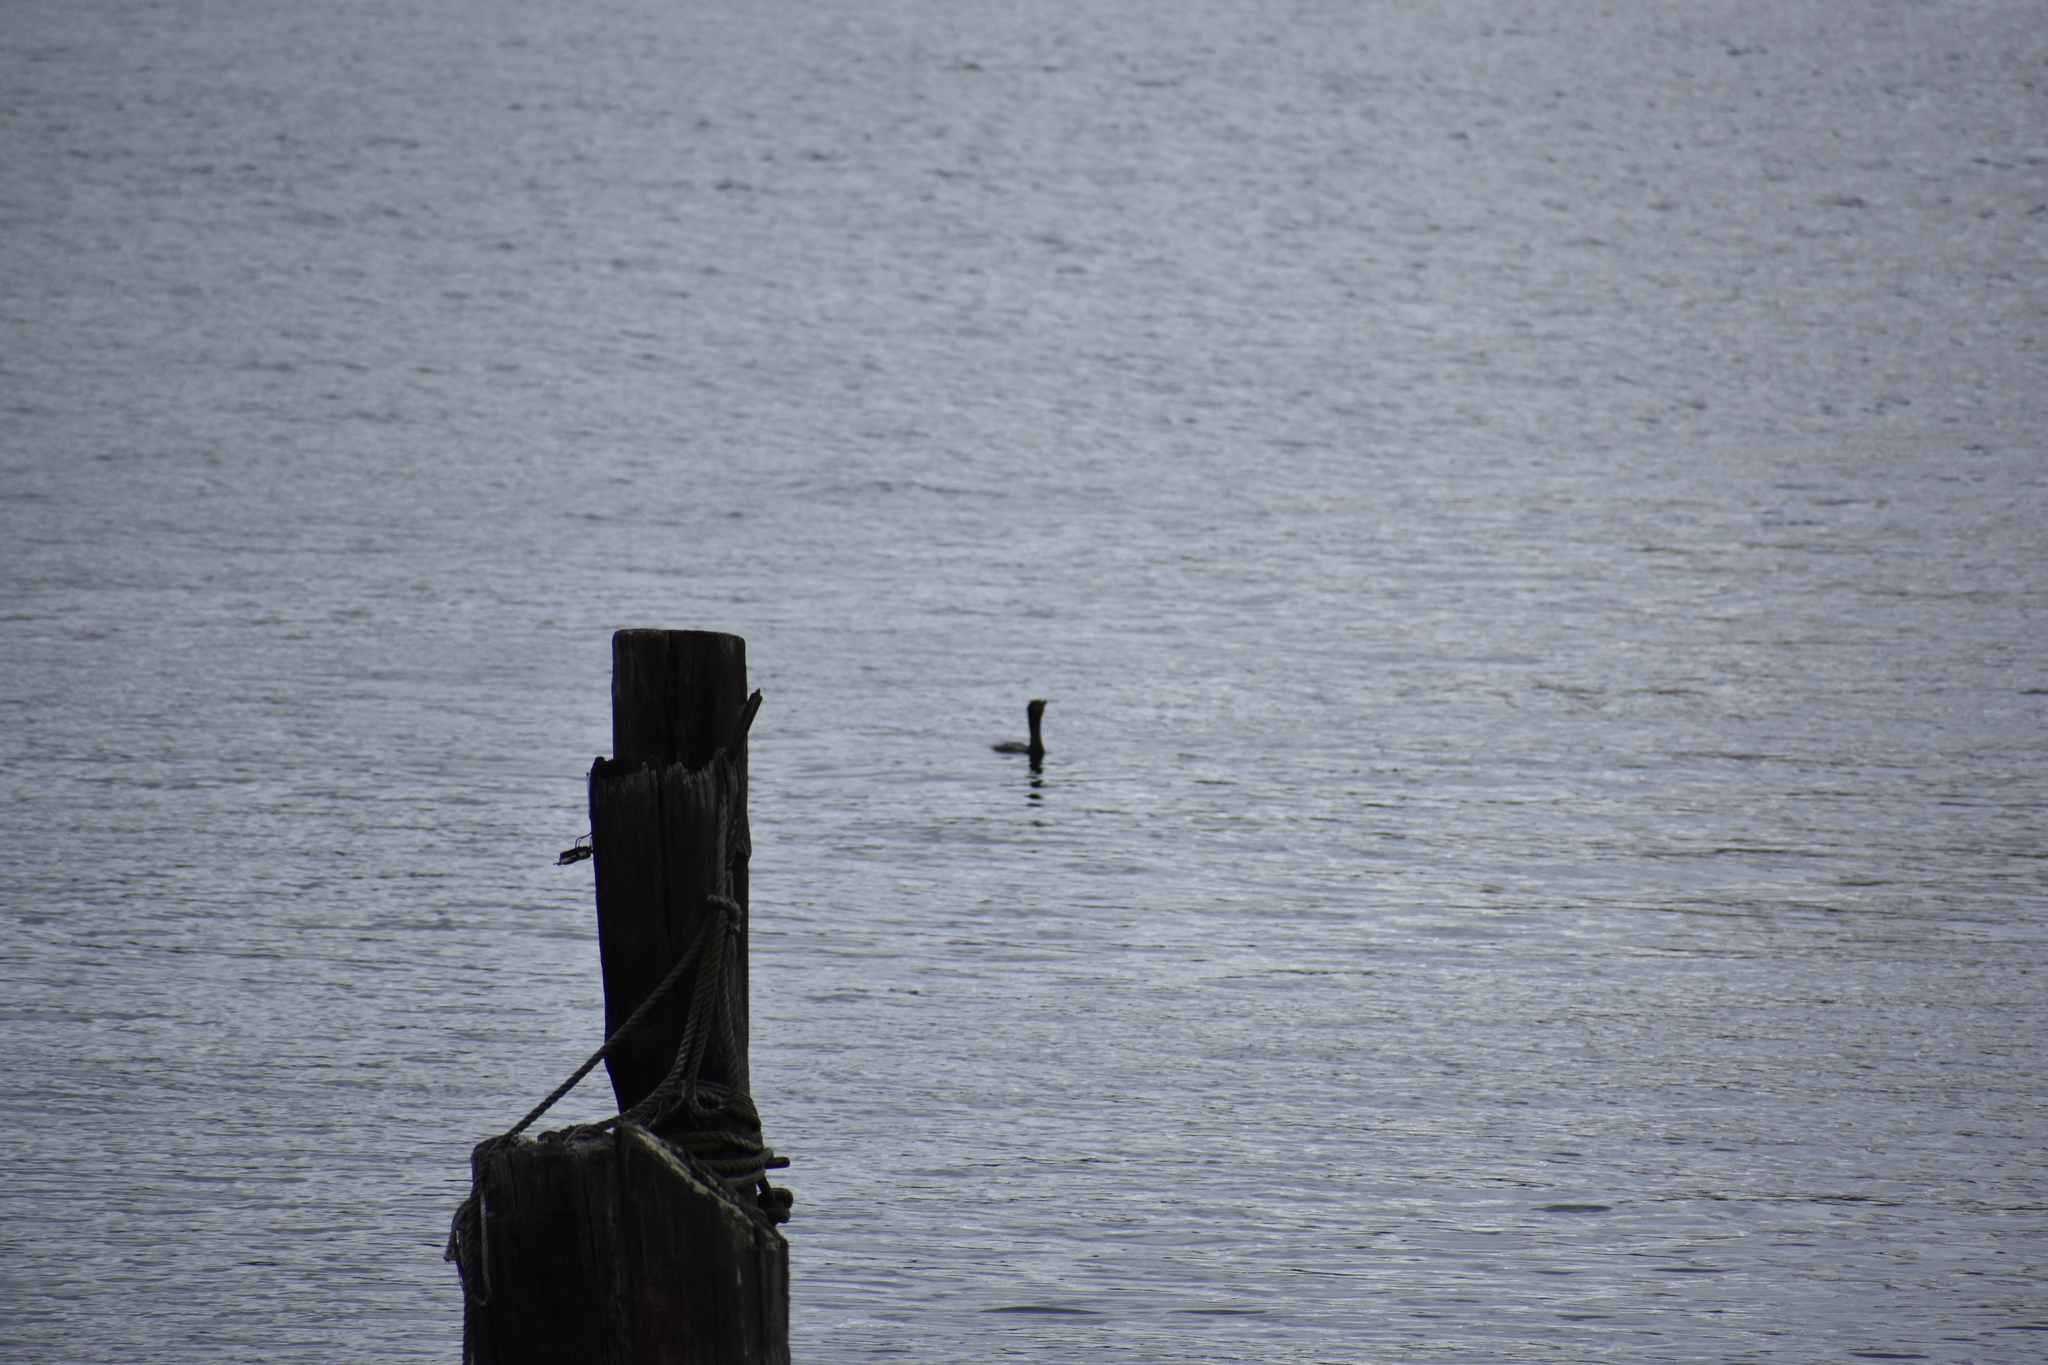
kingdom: Animalia
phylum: Chordata
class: Aves
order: Suliformes
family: Phalacrocoracidae
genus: Phalacrocorax
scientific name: Phalacrocorax auritus
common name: Double-crested cormorant
